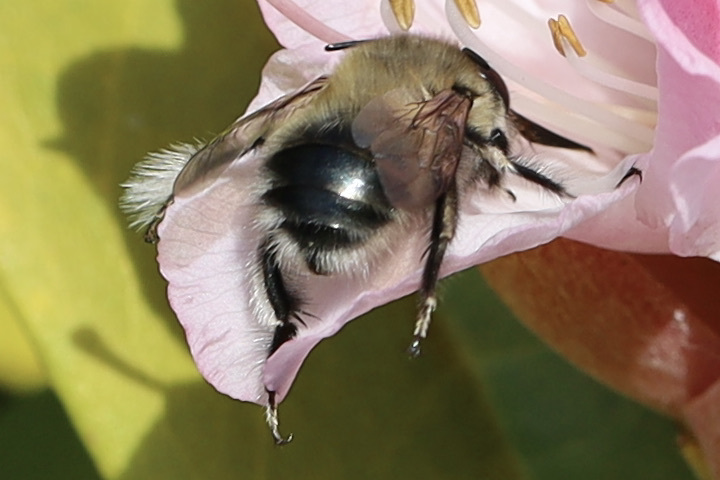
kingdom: Animalia
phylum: Arthropoda
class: Insecta
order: Hymenoptera
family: Apidae
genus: Anthophora
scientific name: Anthophora pacifica
